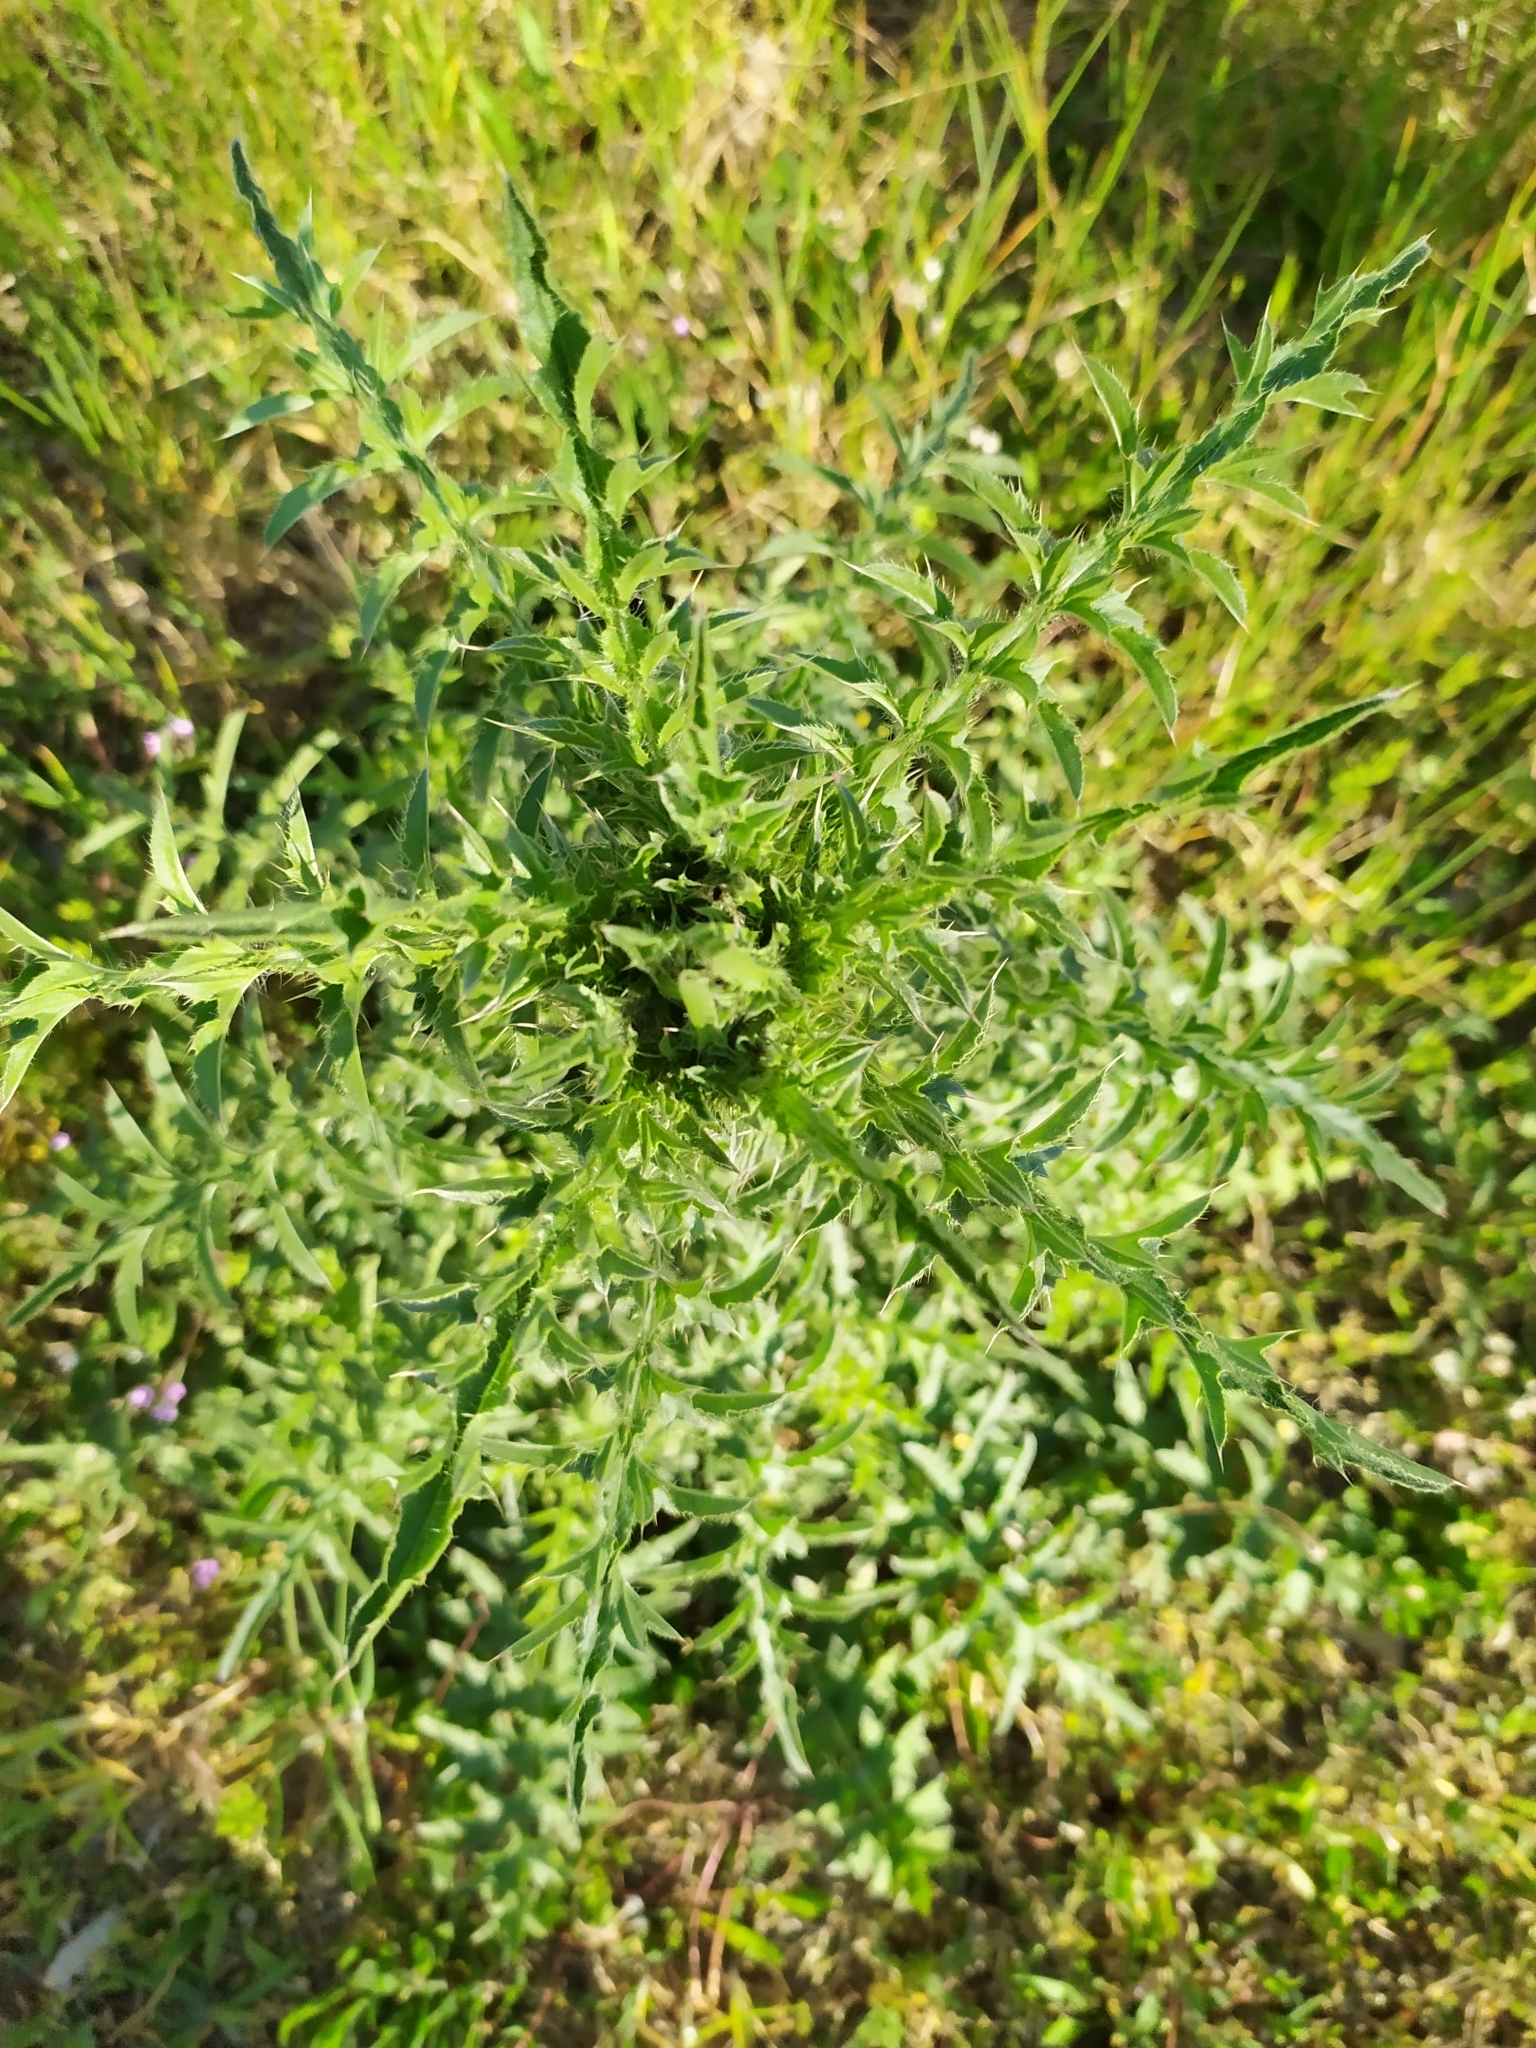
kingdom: Plantae
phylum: Tracheophyta
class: Magnoliopsida
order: Asterales
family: Asteraceae
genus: Carduus
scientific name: Carduus acanthoides
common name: Plumeless thistle
